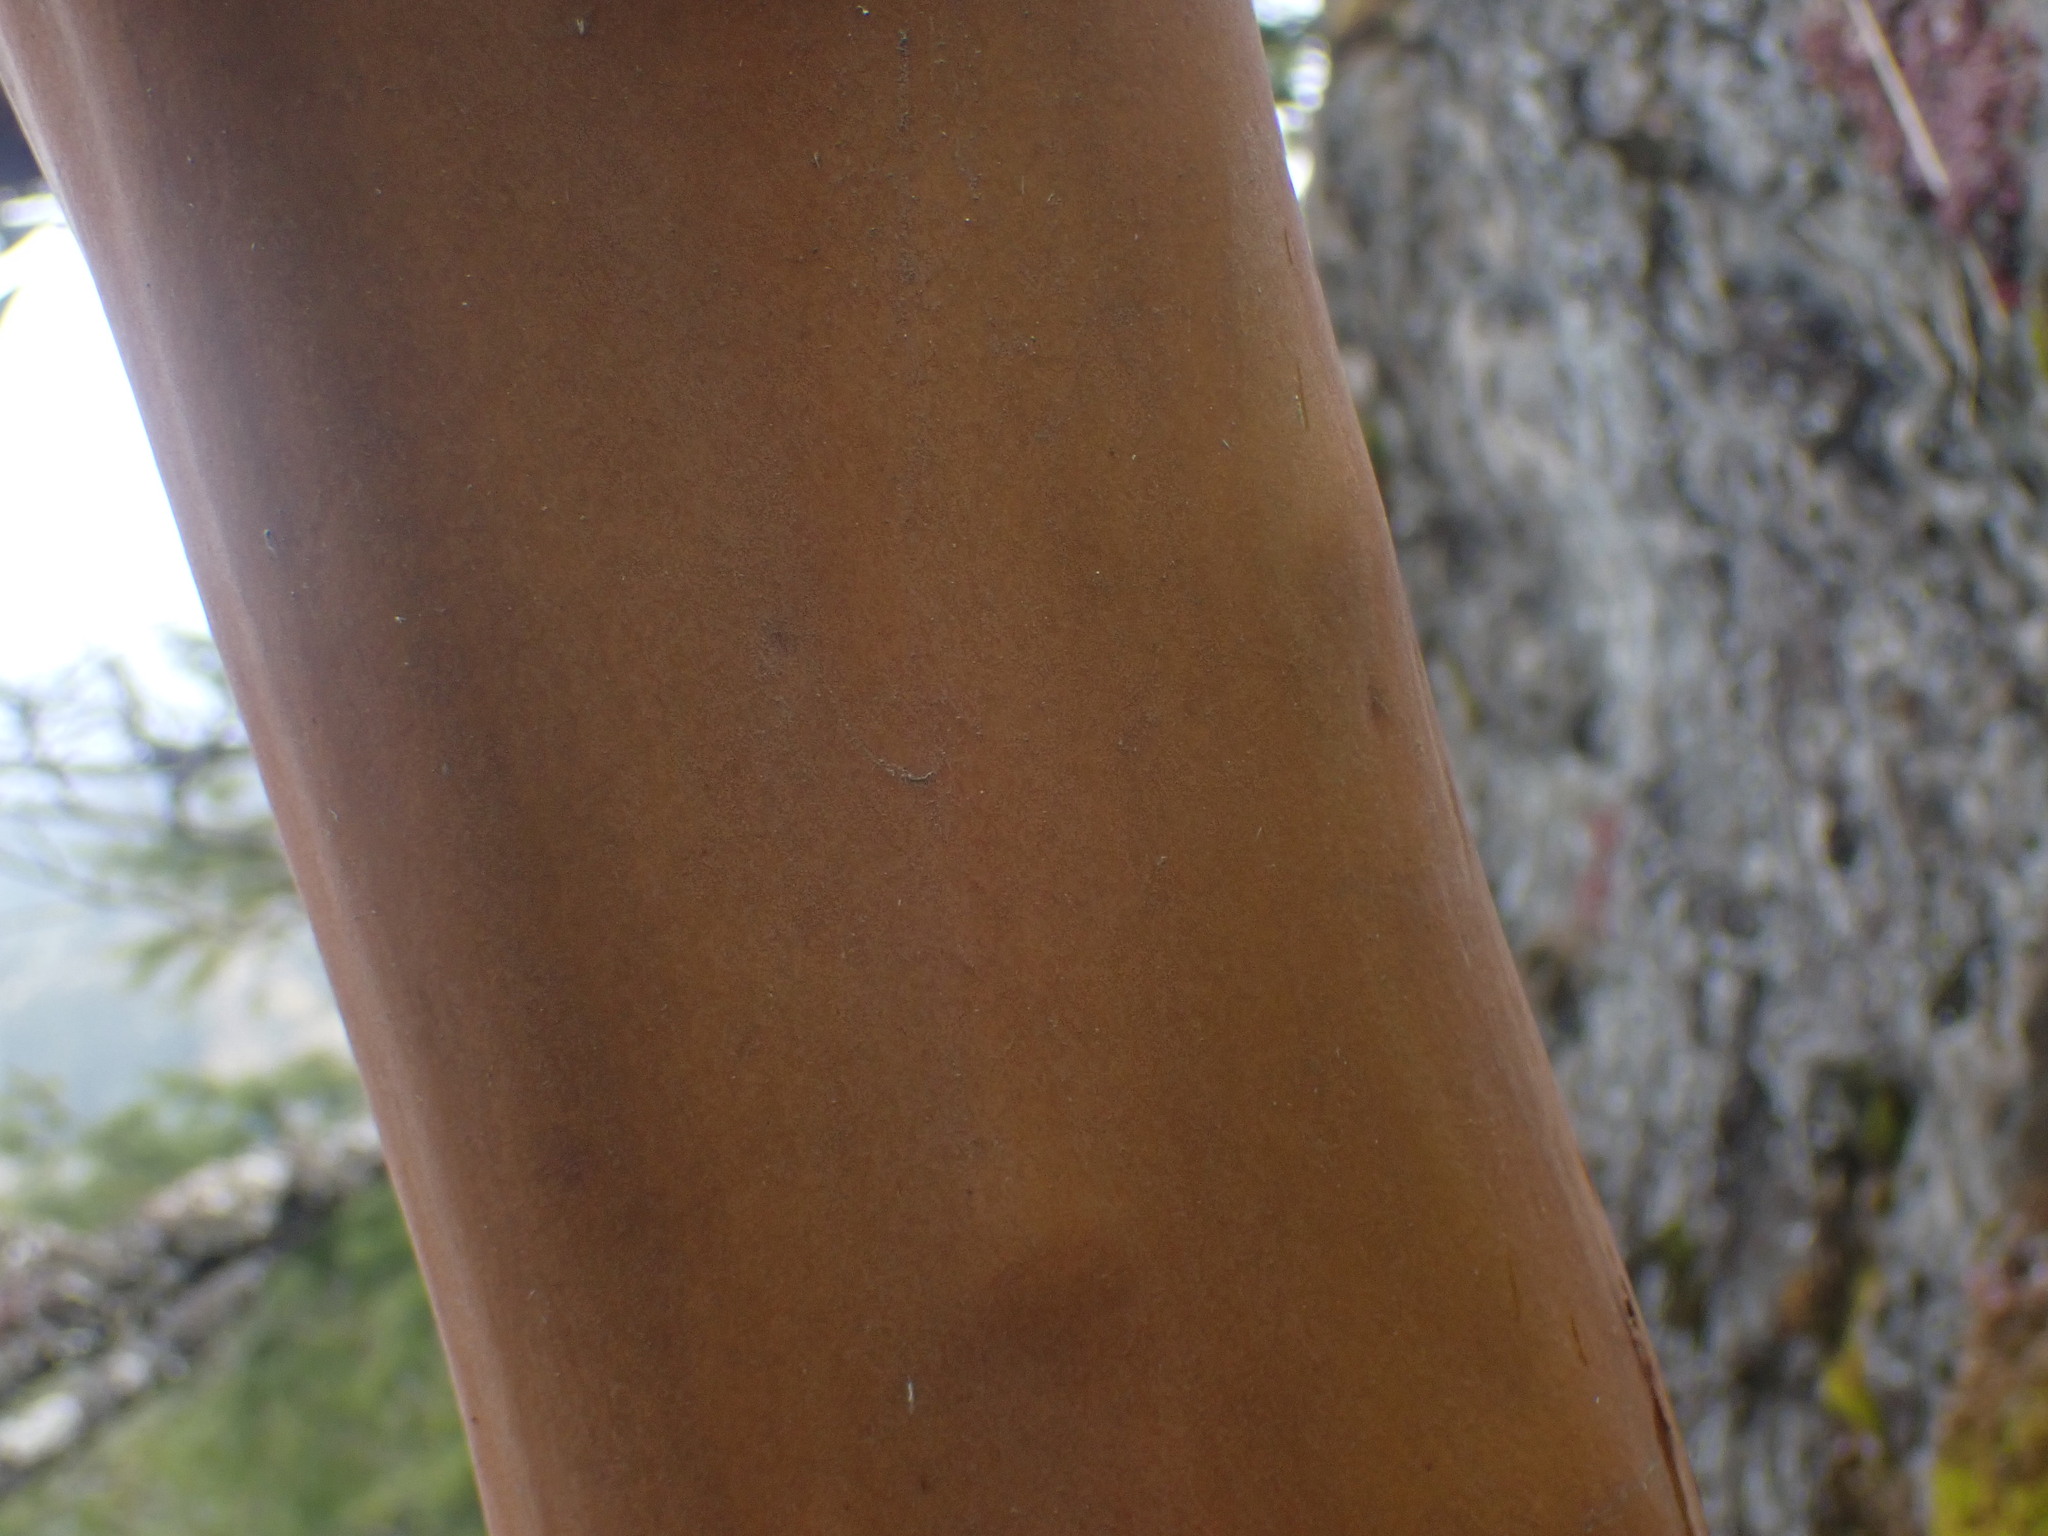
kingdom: Plantae
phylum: Tracheophyta
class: Magnoliopsida
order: Ericales
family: Ericaceae
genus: Arbutus
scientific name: Arbutus menziesii
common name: Pacific madrone
